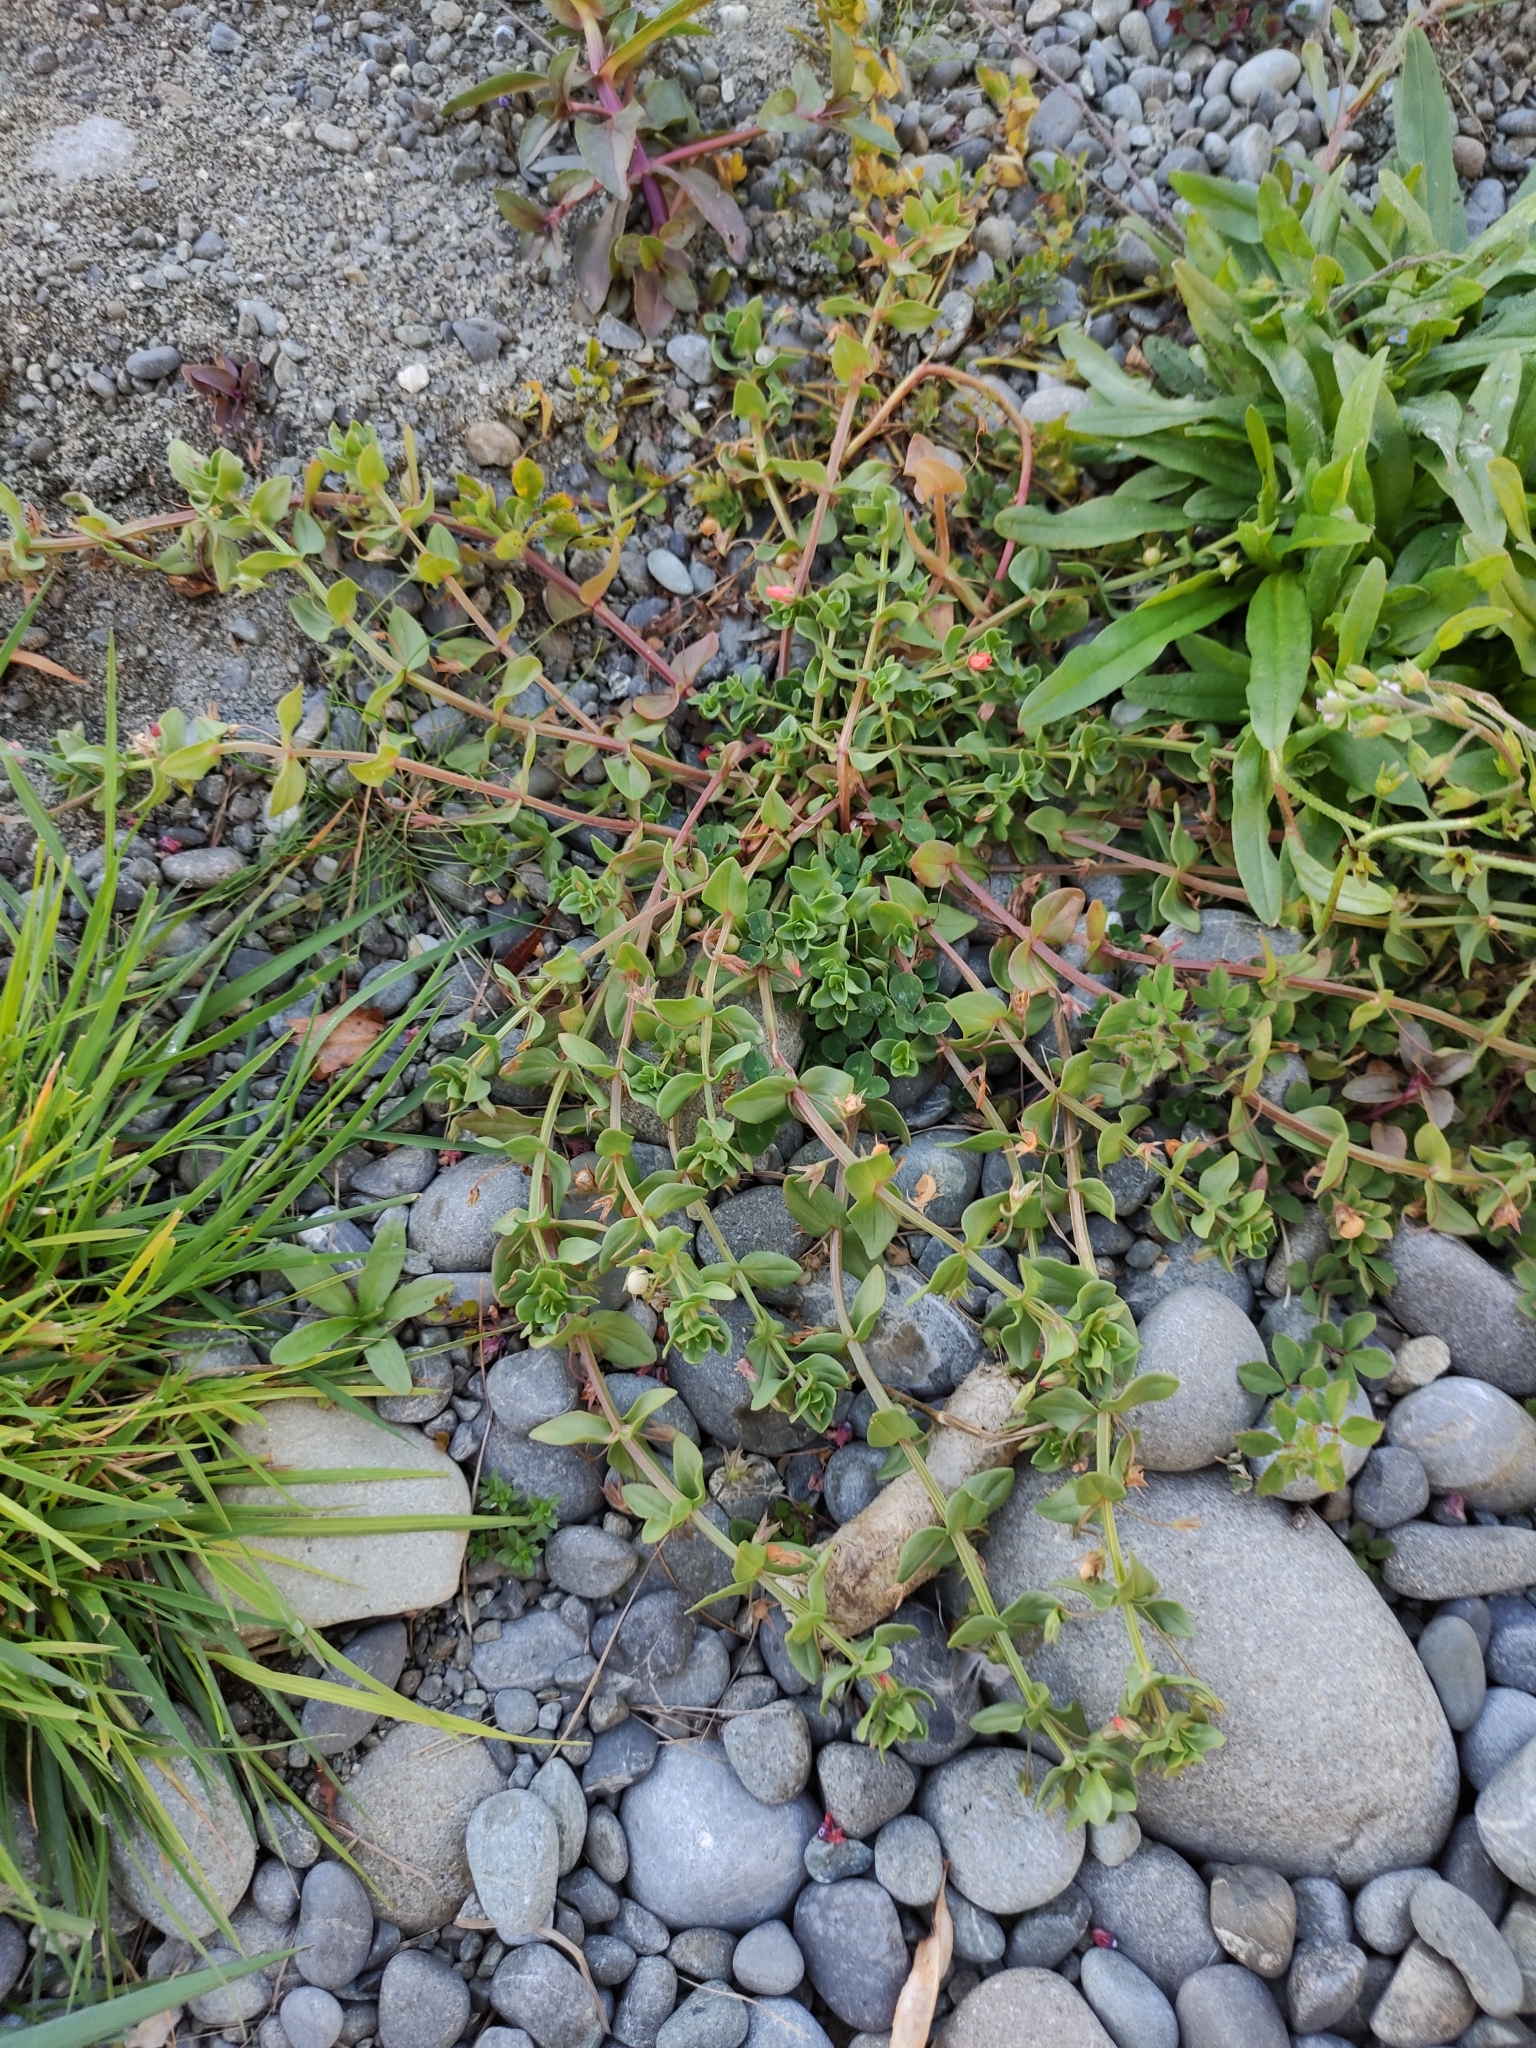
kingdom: Plantae
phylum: Tracheophyta
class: Magnoliopsida
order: Ericales
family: Primulaceae
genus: Lysimachia
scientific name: Lysimachia arvensis
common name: Scarlet pimpernel
